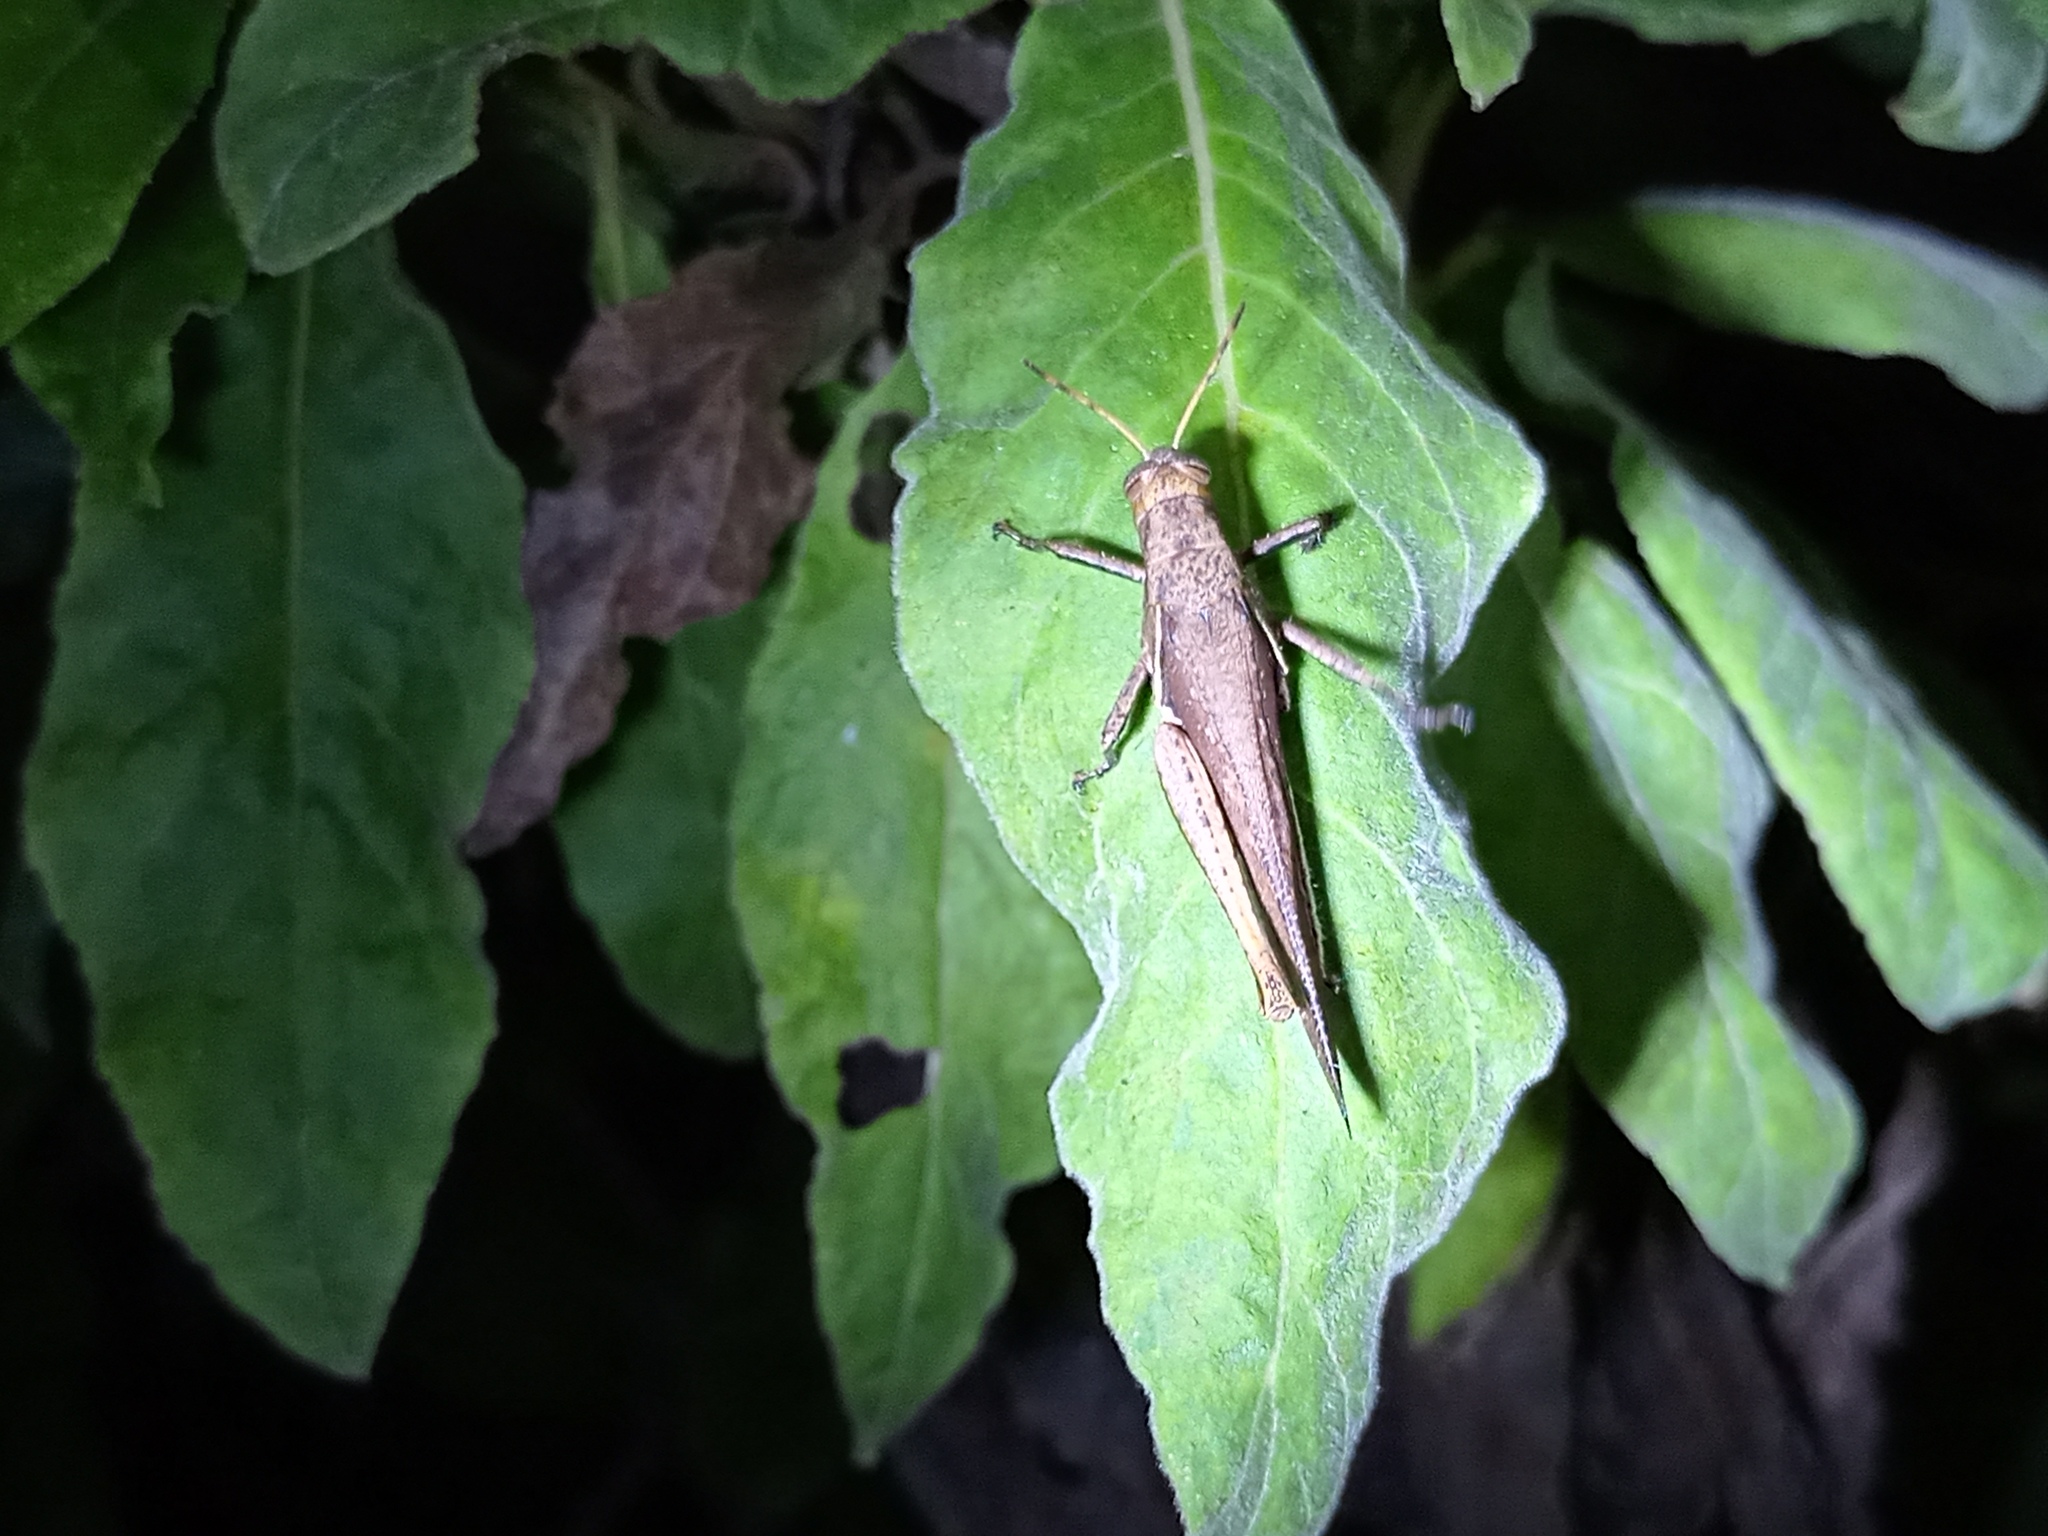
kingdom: Animalia
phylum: Arthropoda
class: Insecta
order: Orthoptera
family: Acrididae
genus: Abracris
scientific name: Abracris flavolineata
